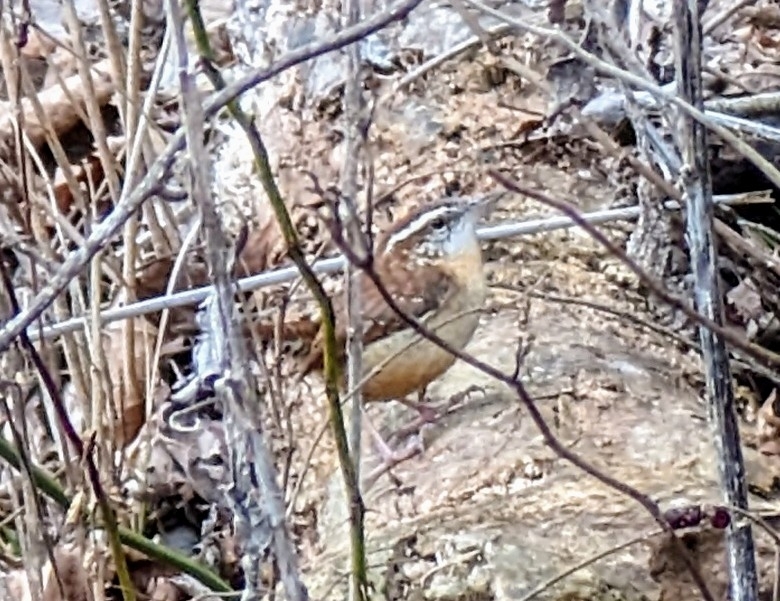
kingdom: Animalia
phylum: Chordata
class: Aves
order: Passeriformes
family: Troglodytidae
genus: Thryothorus
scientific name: Thryothorus ludovicianus
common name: Carolina wren
